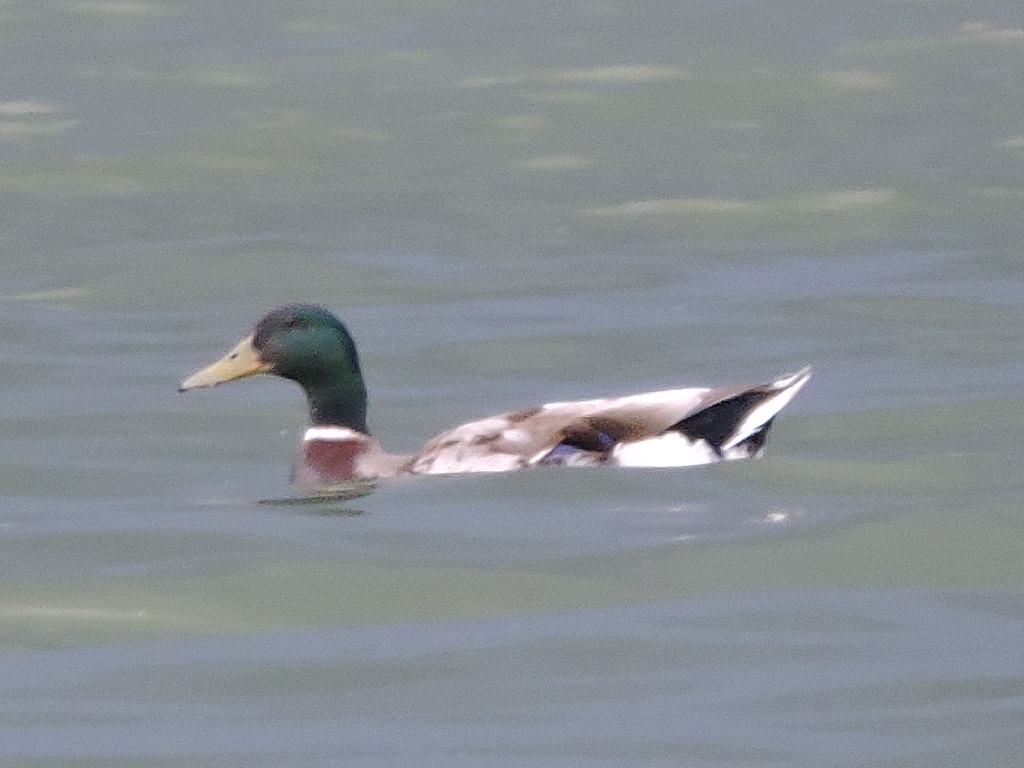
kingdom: Animalia
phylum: Chordata
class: Aves
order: Anseriformes
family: Anatidae
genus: Anas
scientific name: Anas platyrhynchos
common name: Mallard
